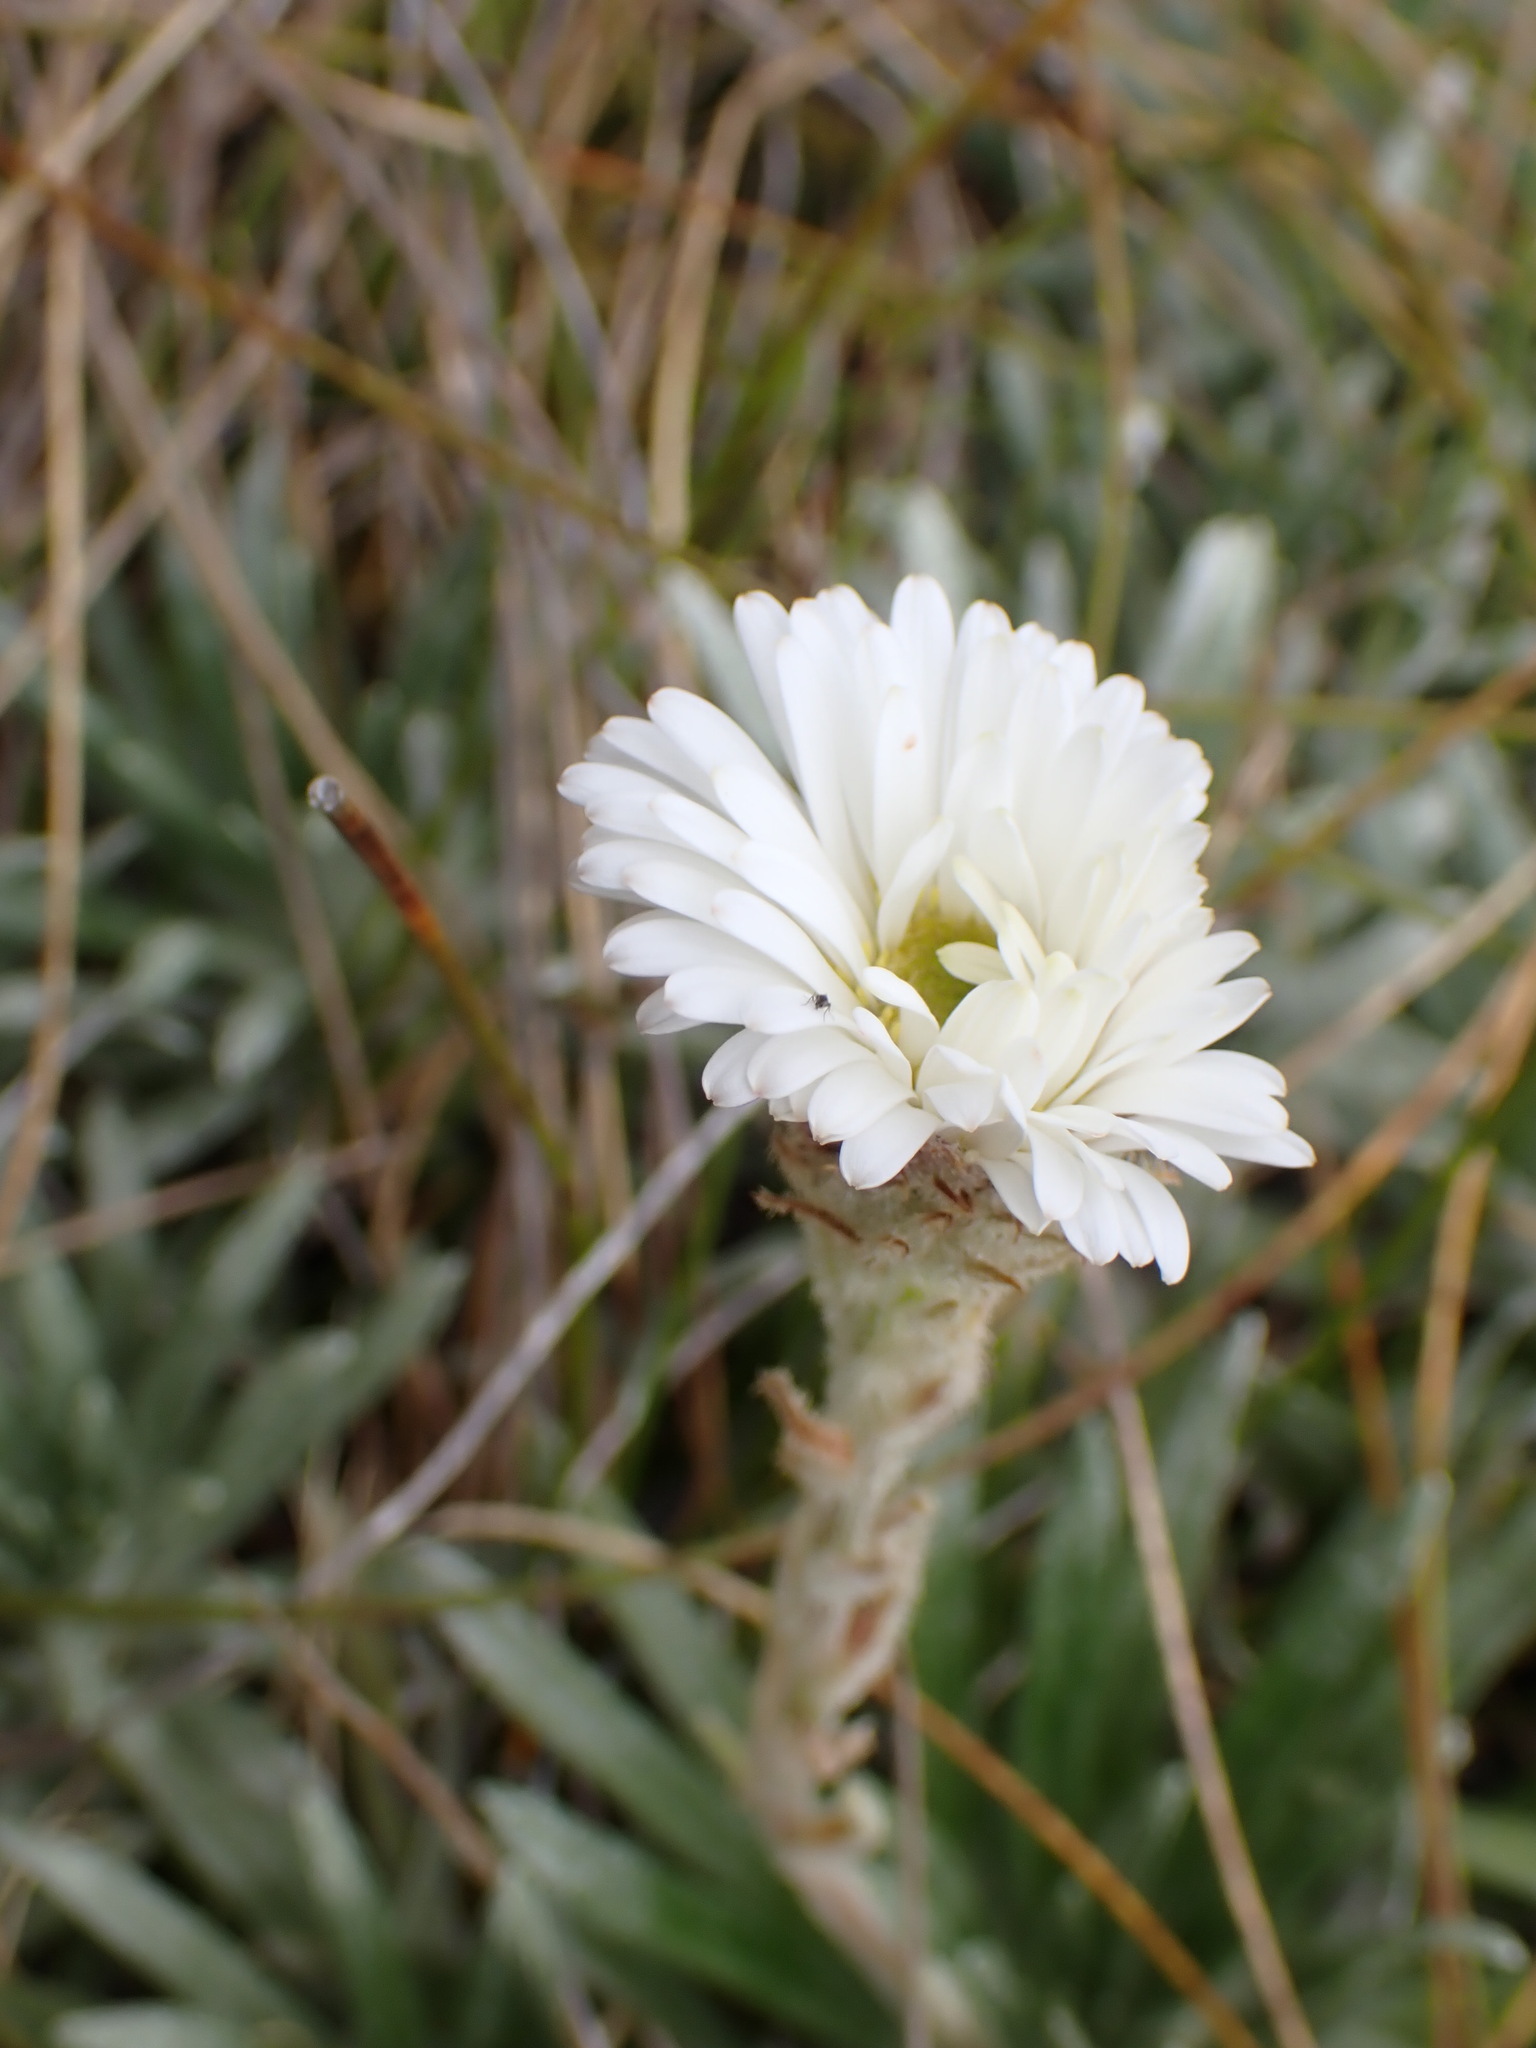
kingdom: Plantae
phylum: Tracheophyta
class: Magnoliopsida
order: Asterales
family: Asteraceae
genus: Celmisia
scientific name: Celmisia viscosa
